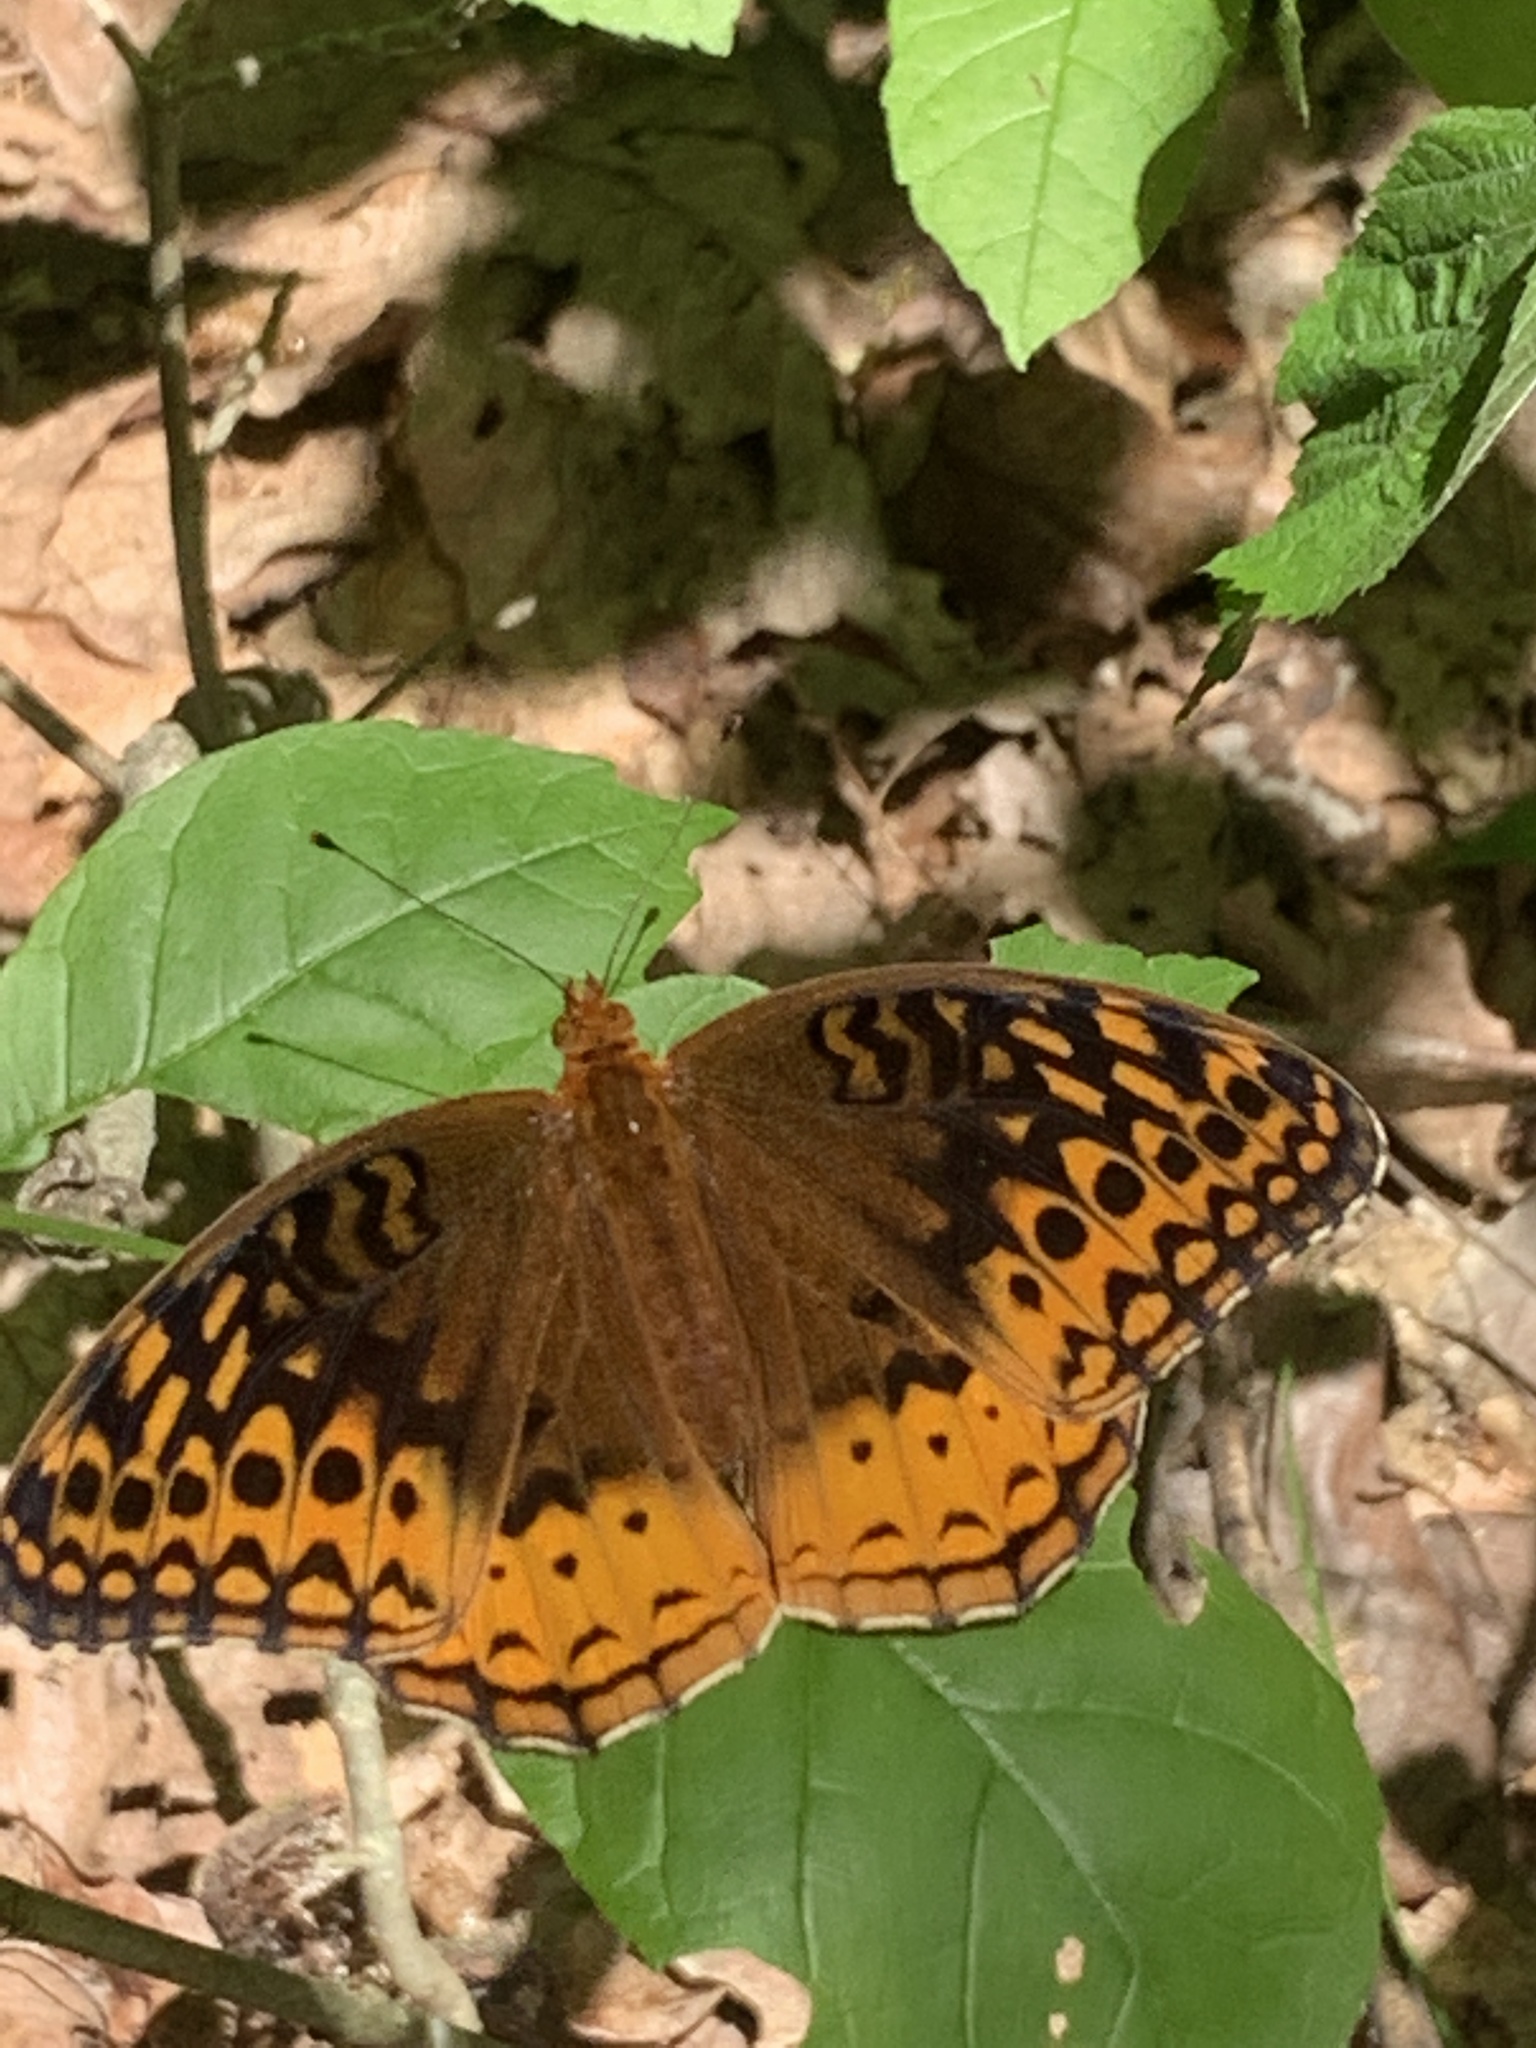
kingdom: Animalia
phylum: Arthropoda
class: Insecta
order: Lepidoptera
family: Nymphalidae
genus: Speyeria
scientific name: Speyeria cybele
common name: Great spangled fritillary
